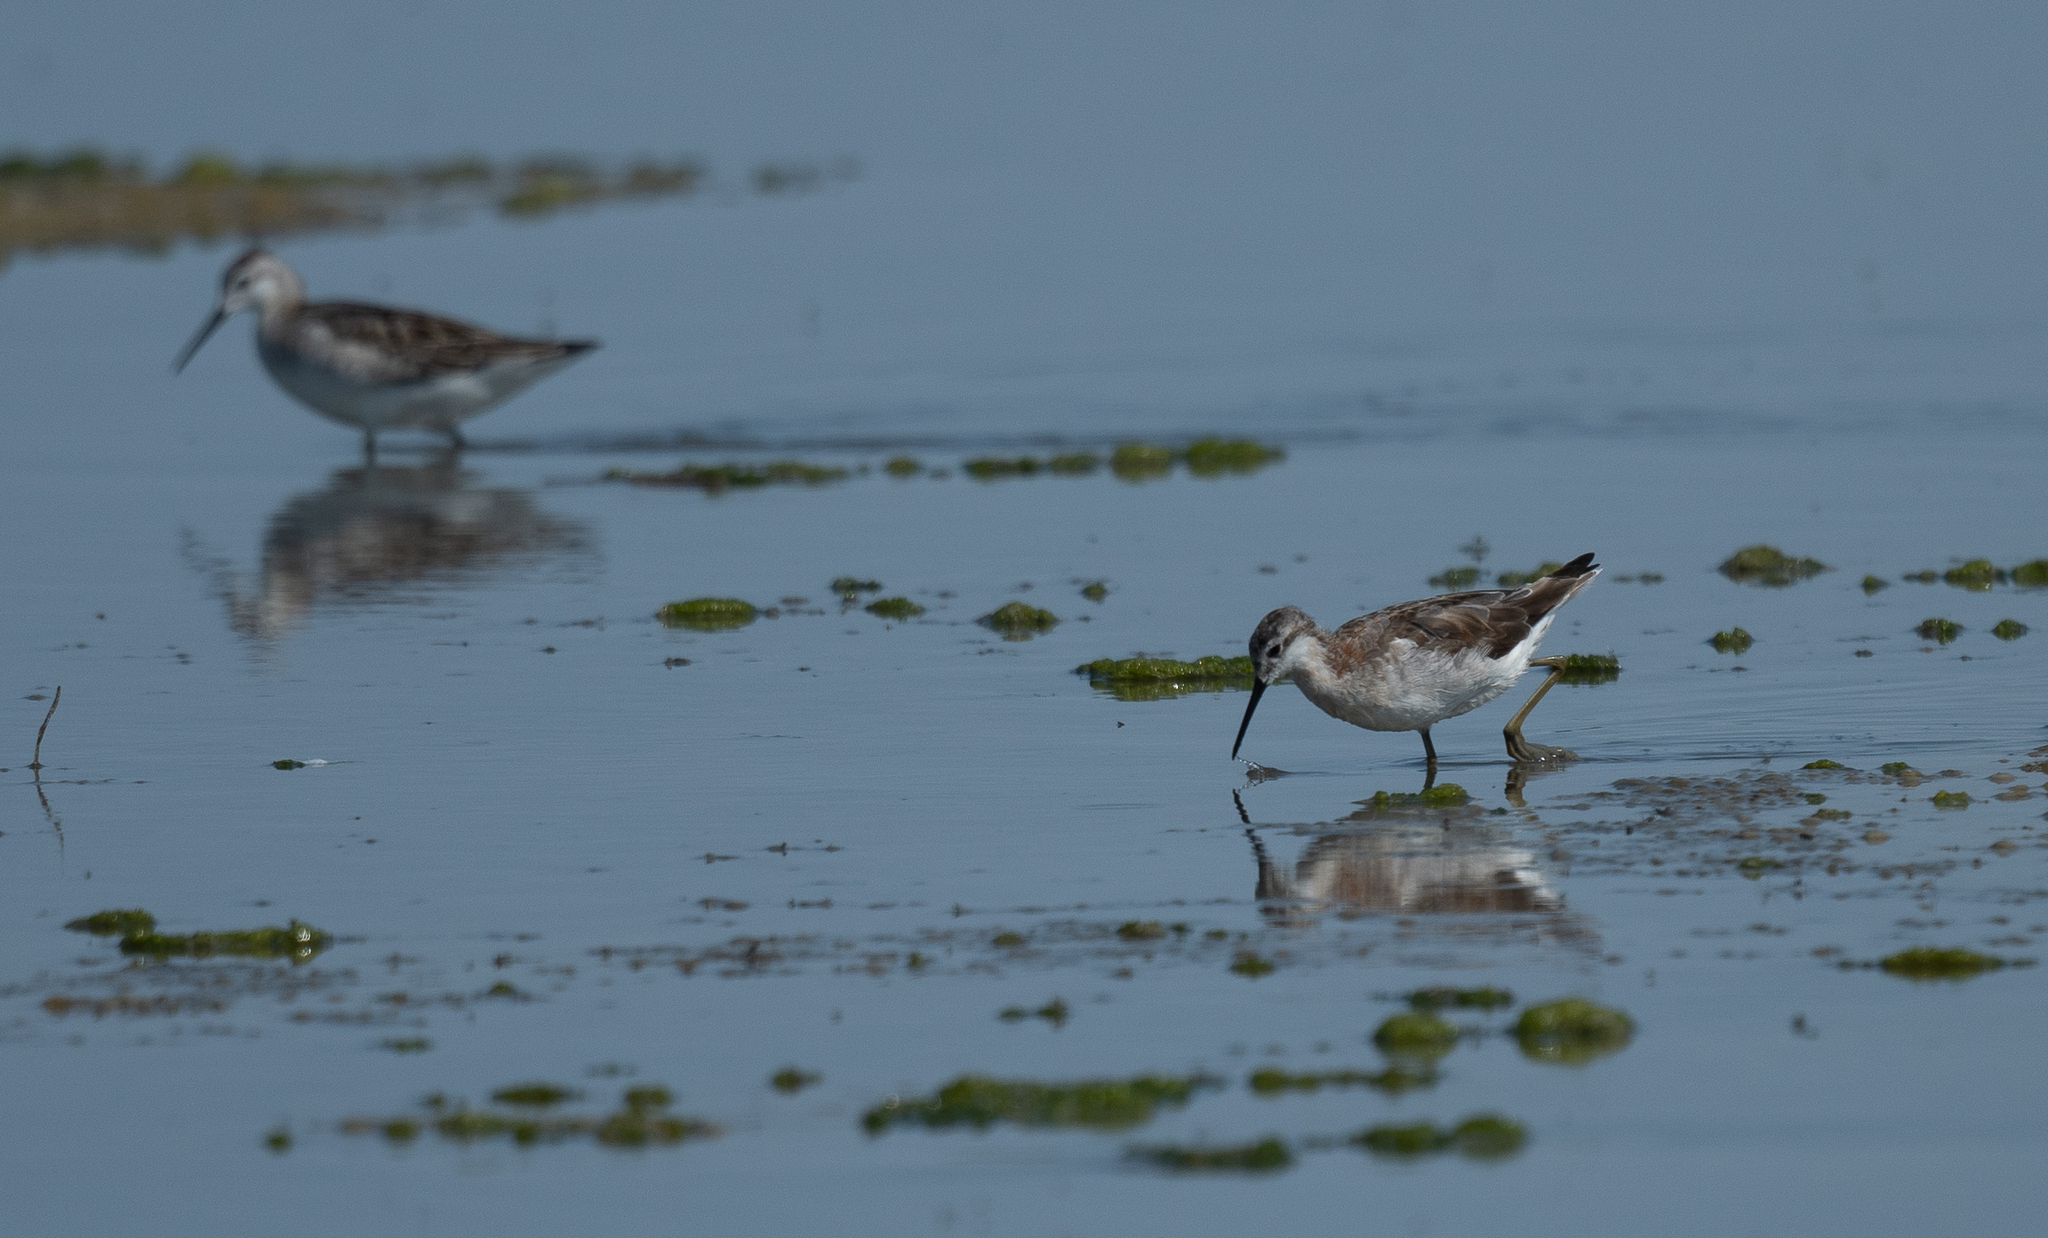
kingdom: Animalia
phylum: Chordata
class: Aves
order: Charadriiformes
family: Scolopacidae
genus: Phalaropus
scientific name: Phalaropus tricolor
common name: Wilson's phalarope
